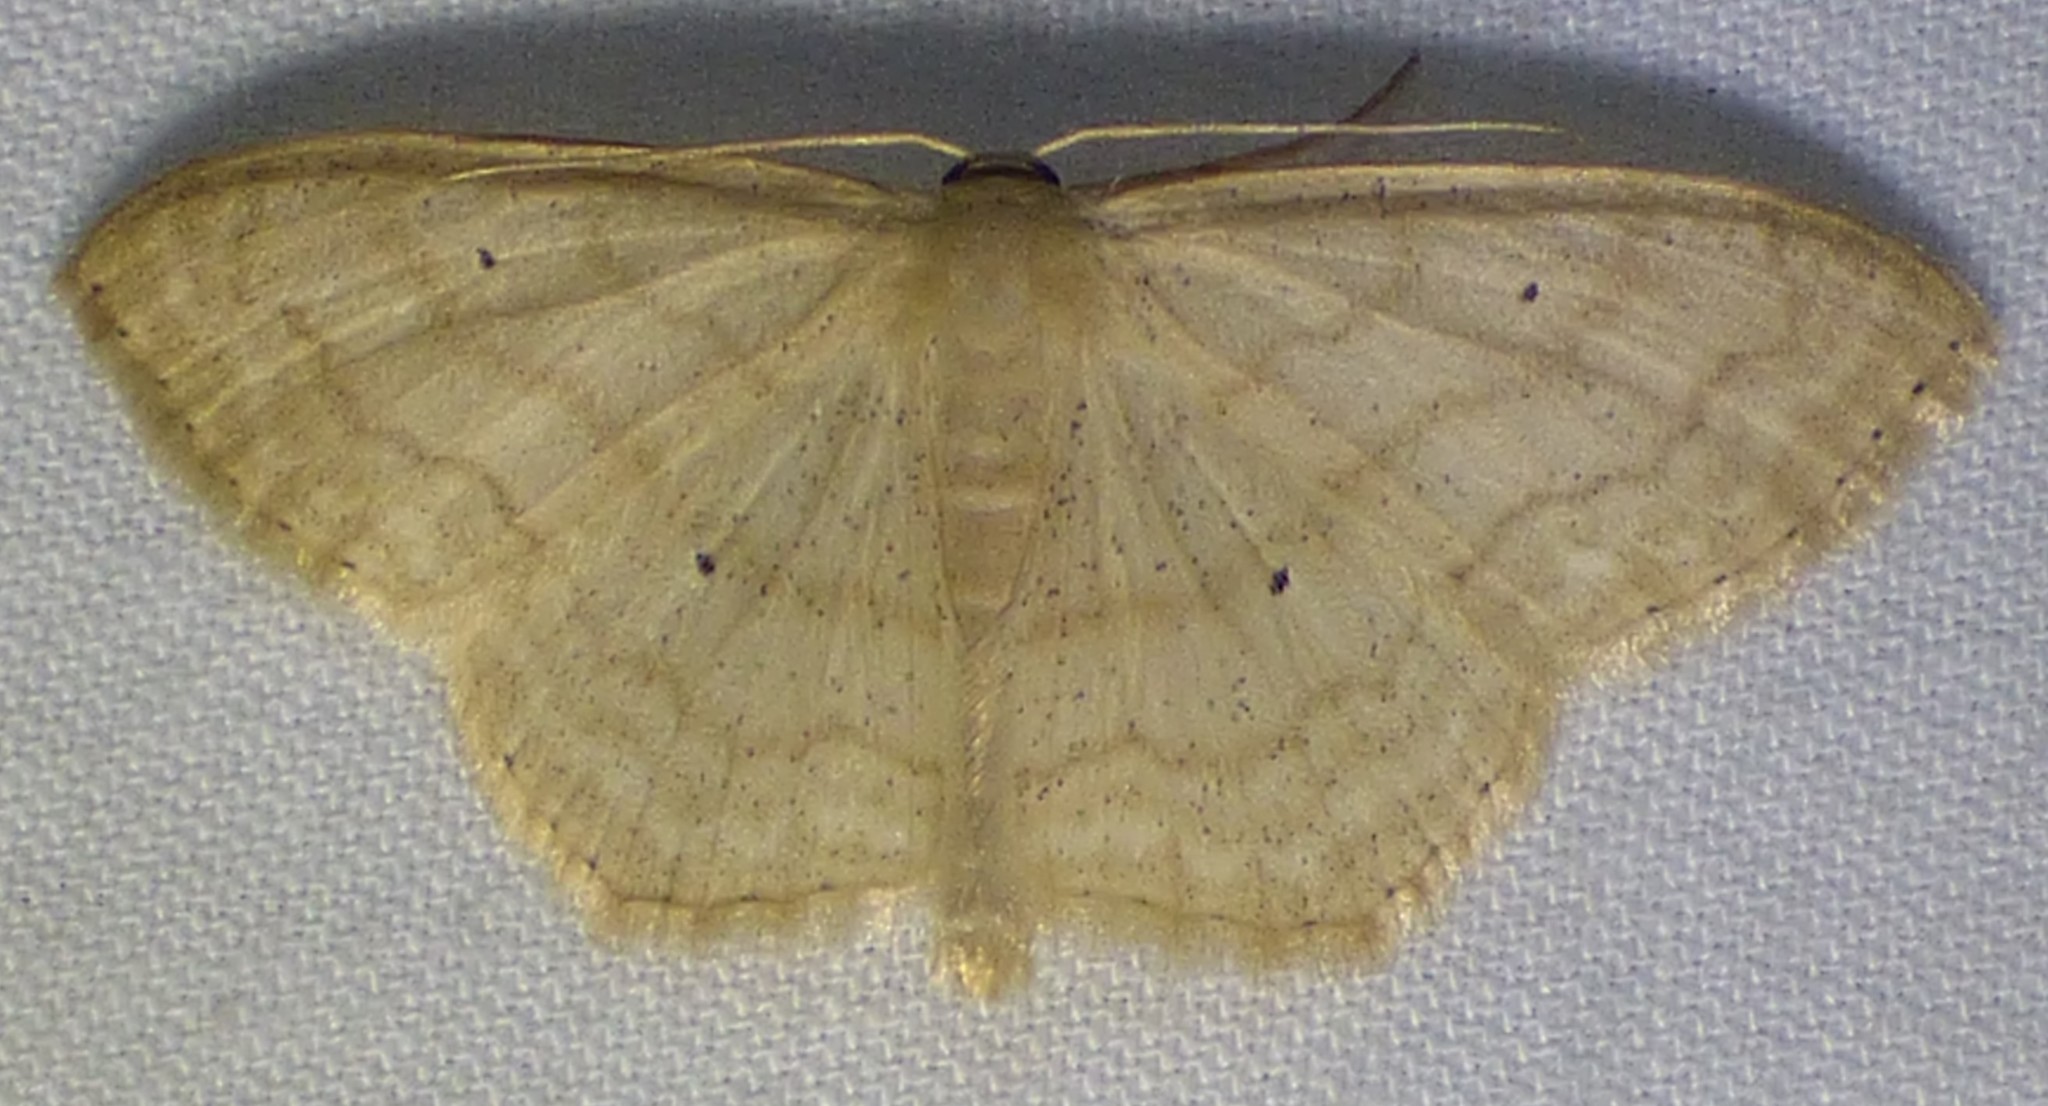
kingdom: Animalia
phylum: Arthropoda
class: Insecta
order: Lepidoptera
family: Geometridae
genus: Scopula
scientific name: Scopula limboundata
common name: Large lace border
